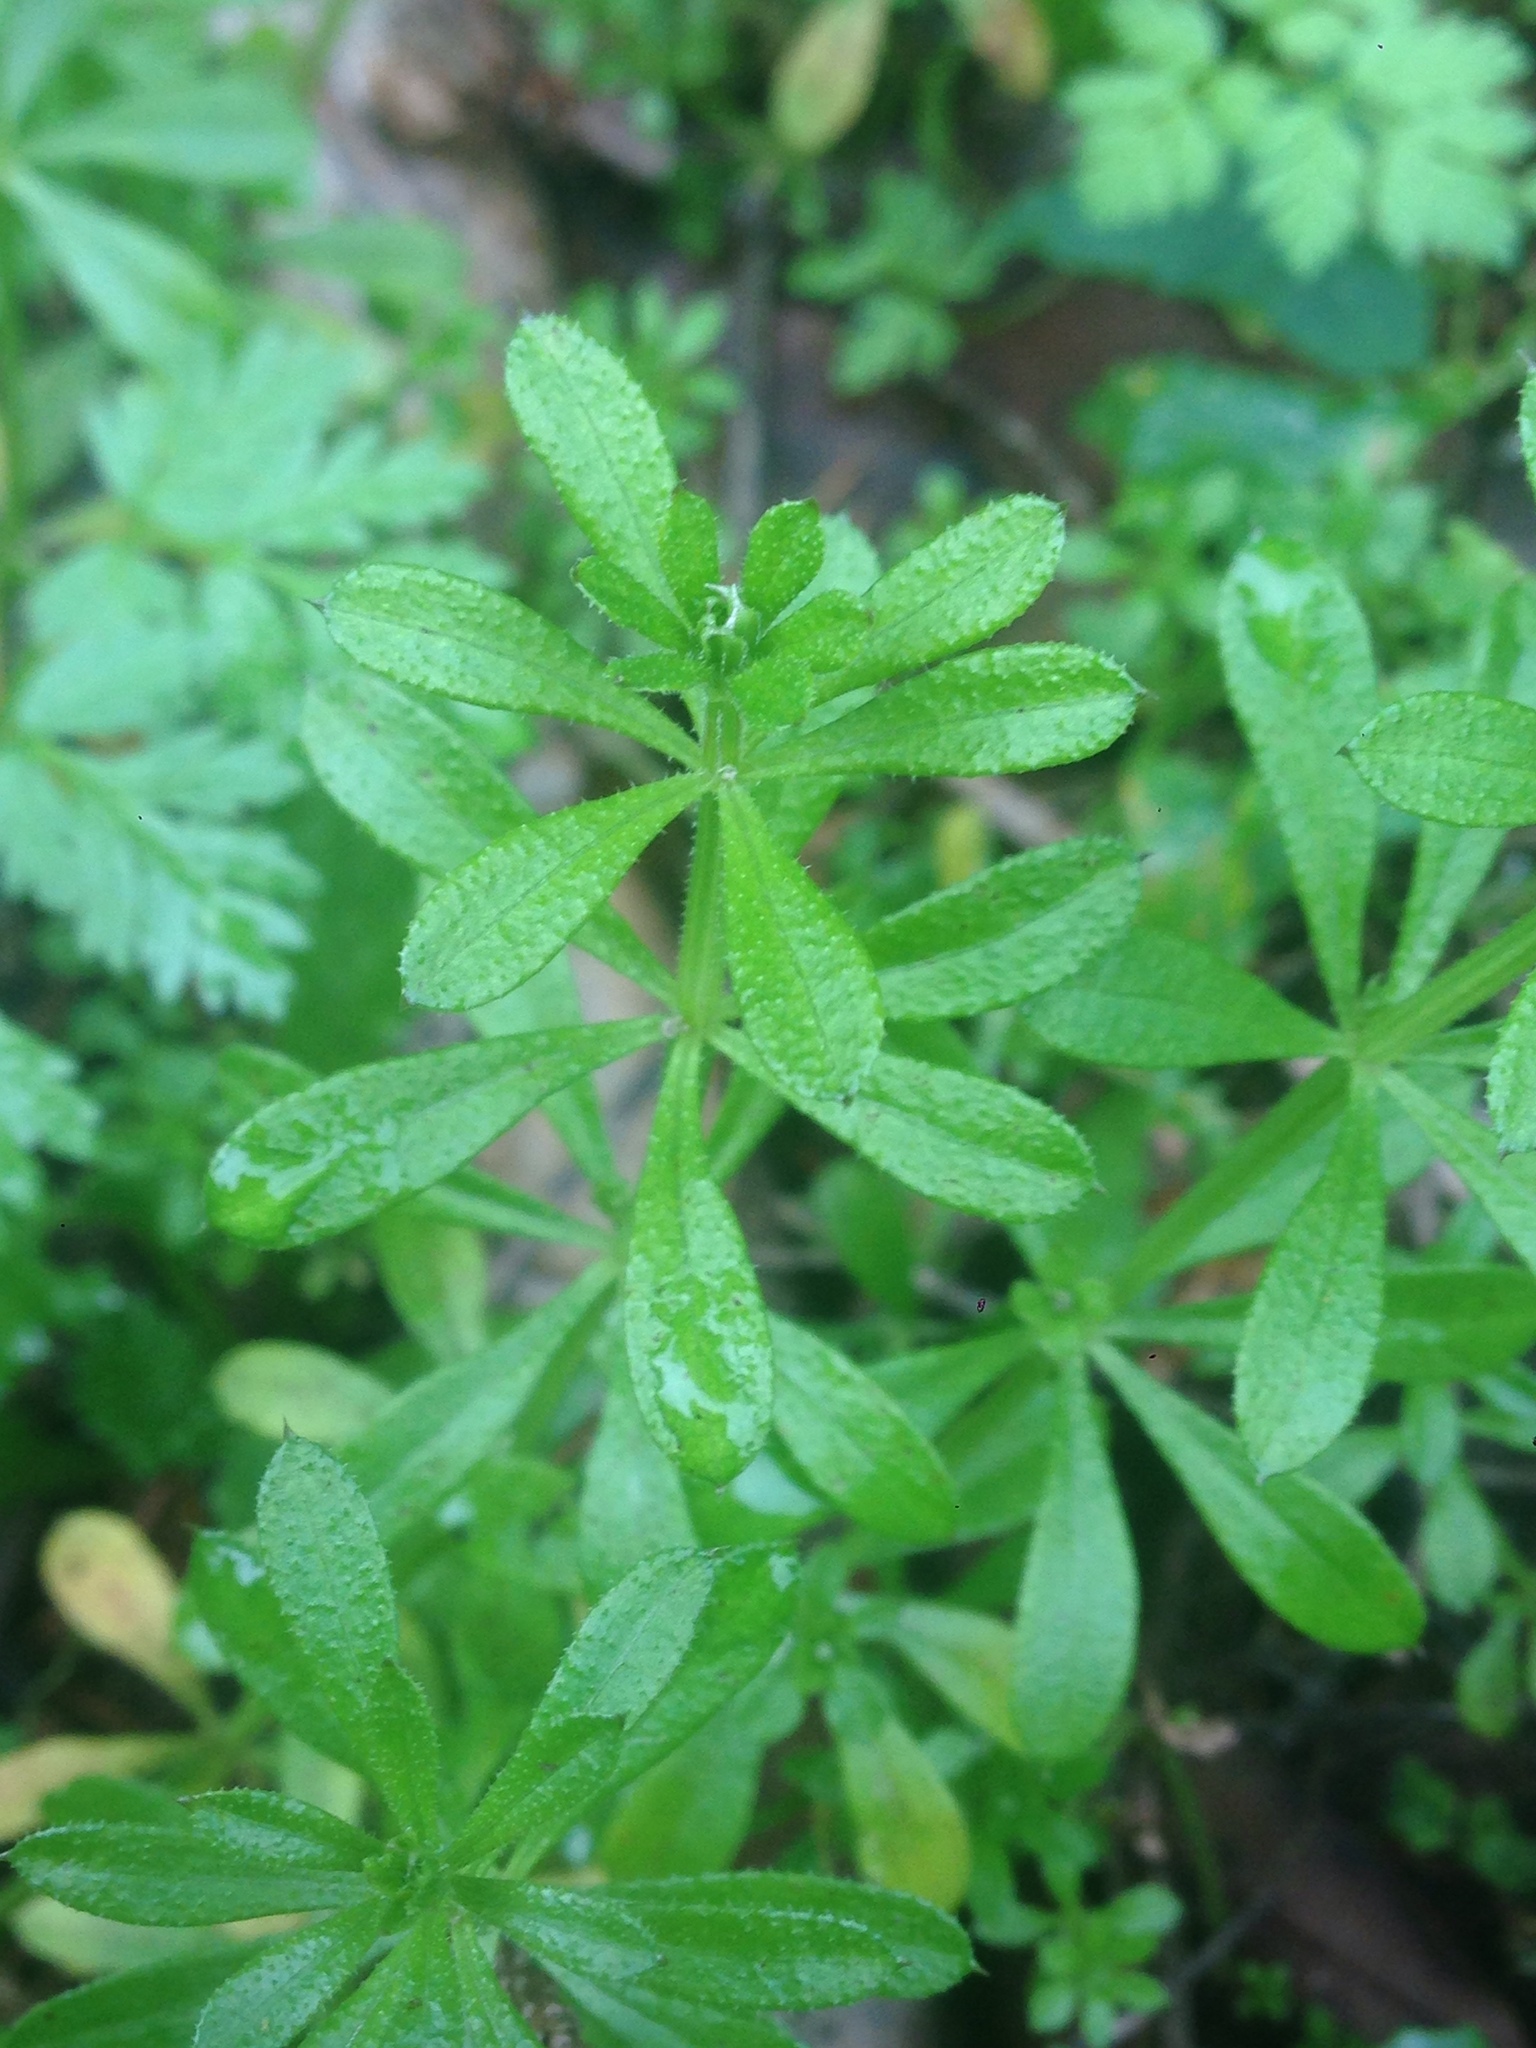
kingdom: Plantae
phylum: Tracheophyta
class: Magnoliopsida
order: Gentianales
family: Rubiaceae
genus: Galium
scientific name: Galium aparine
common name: Cleavers
